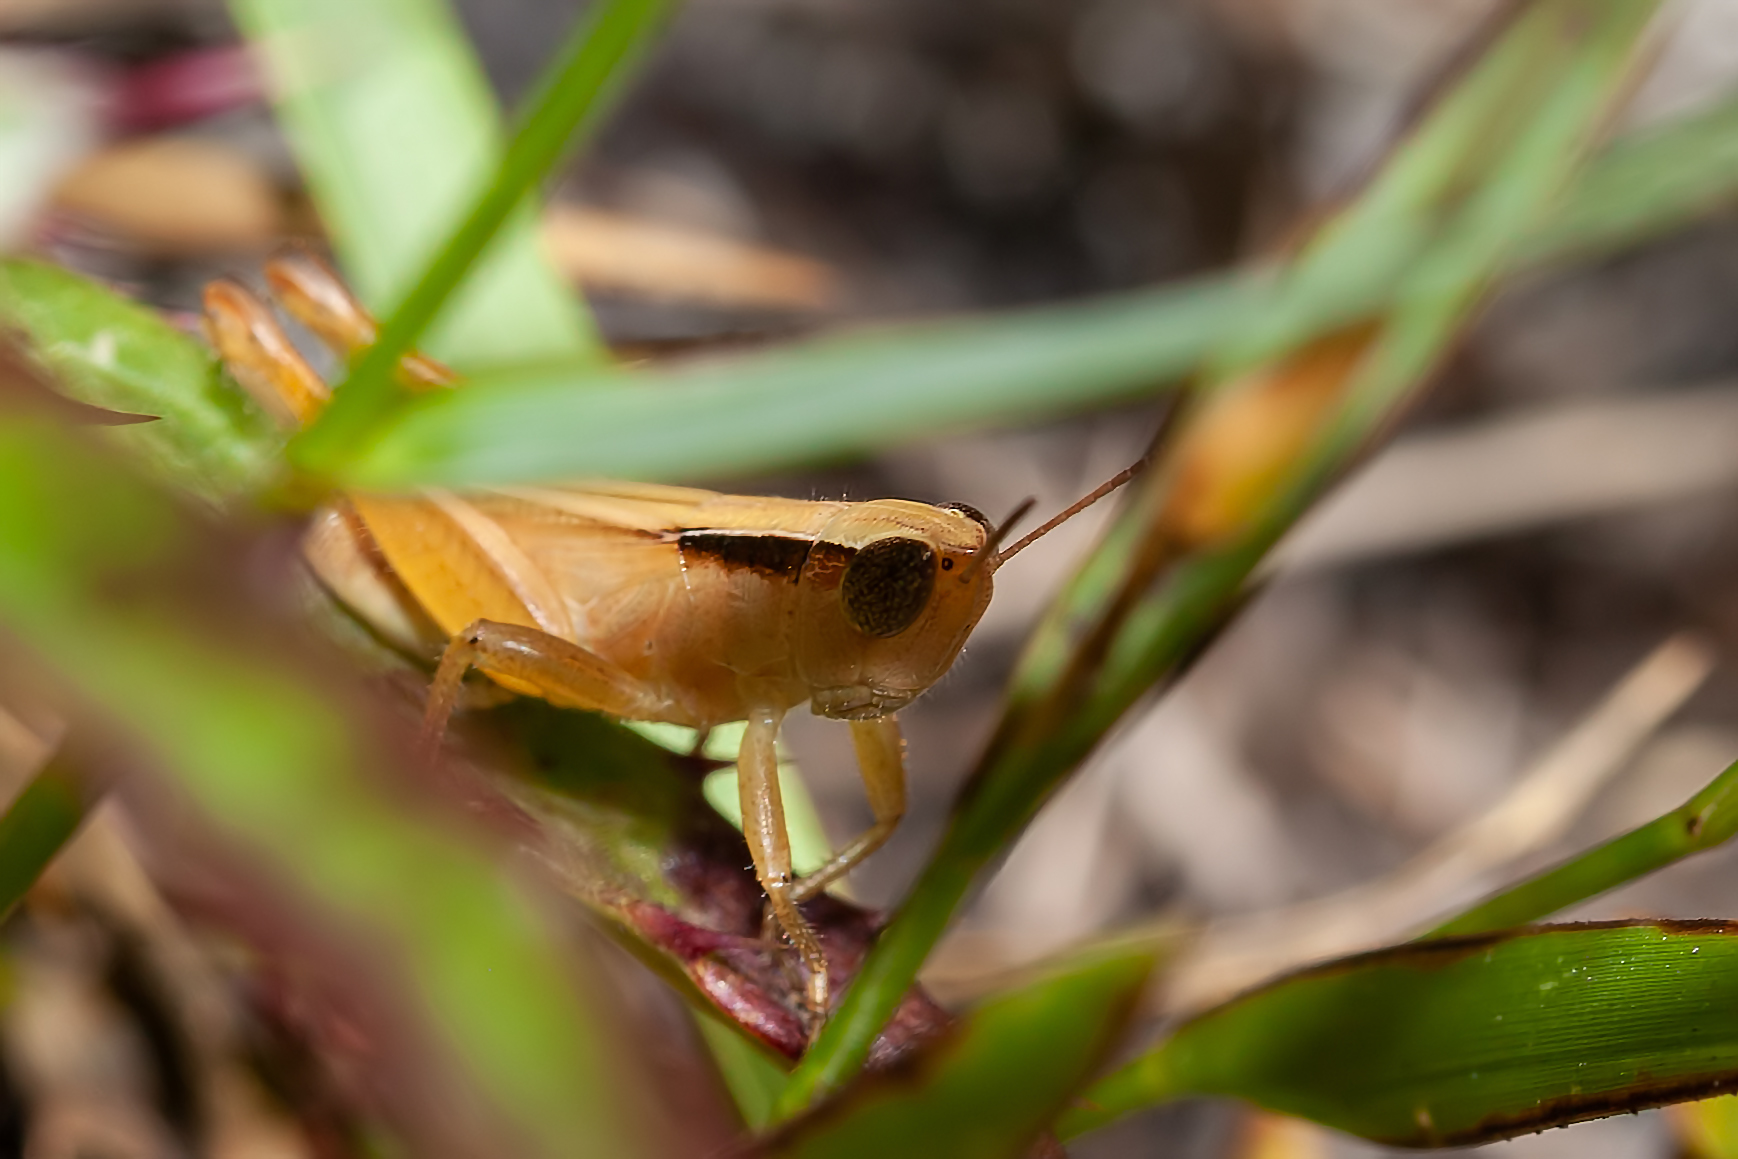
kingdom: Animalia
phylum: Arthropoda
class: Insecta
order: Orthoptera
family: Acrididae
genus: Dichromorpha
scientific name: Dichromorpha elegans
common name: Elegant grasshopper
